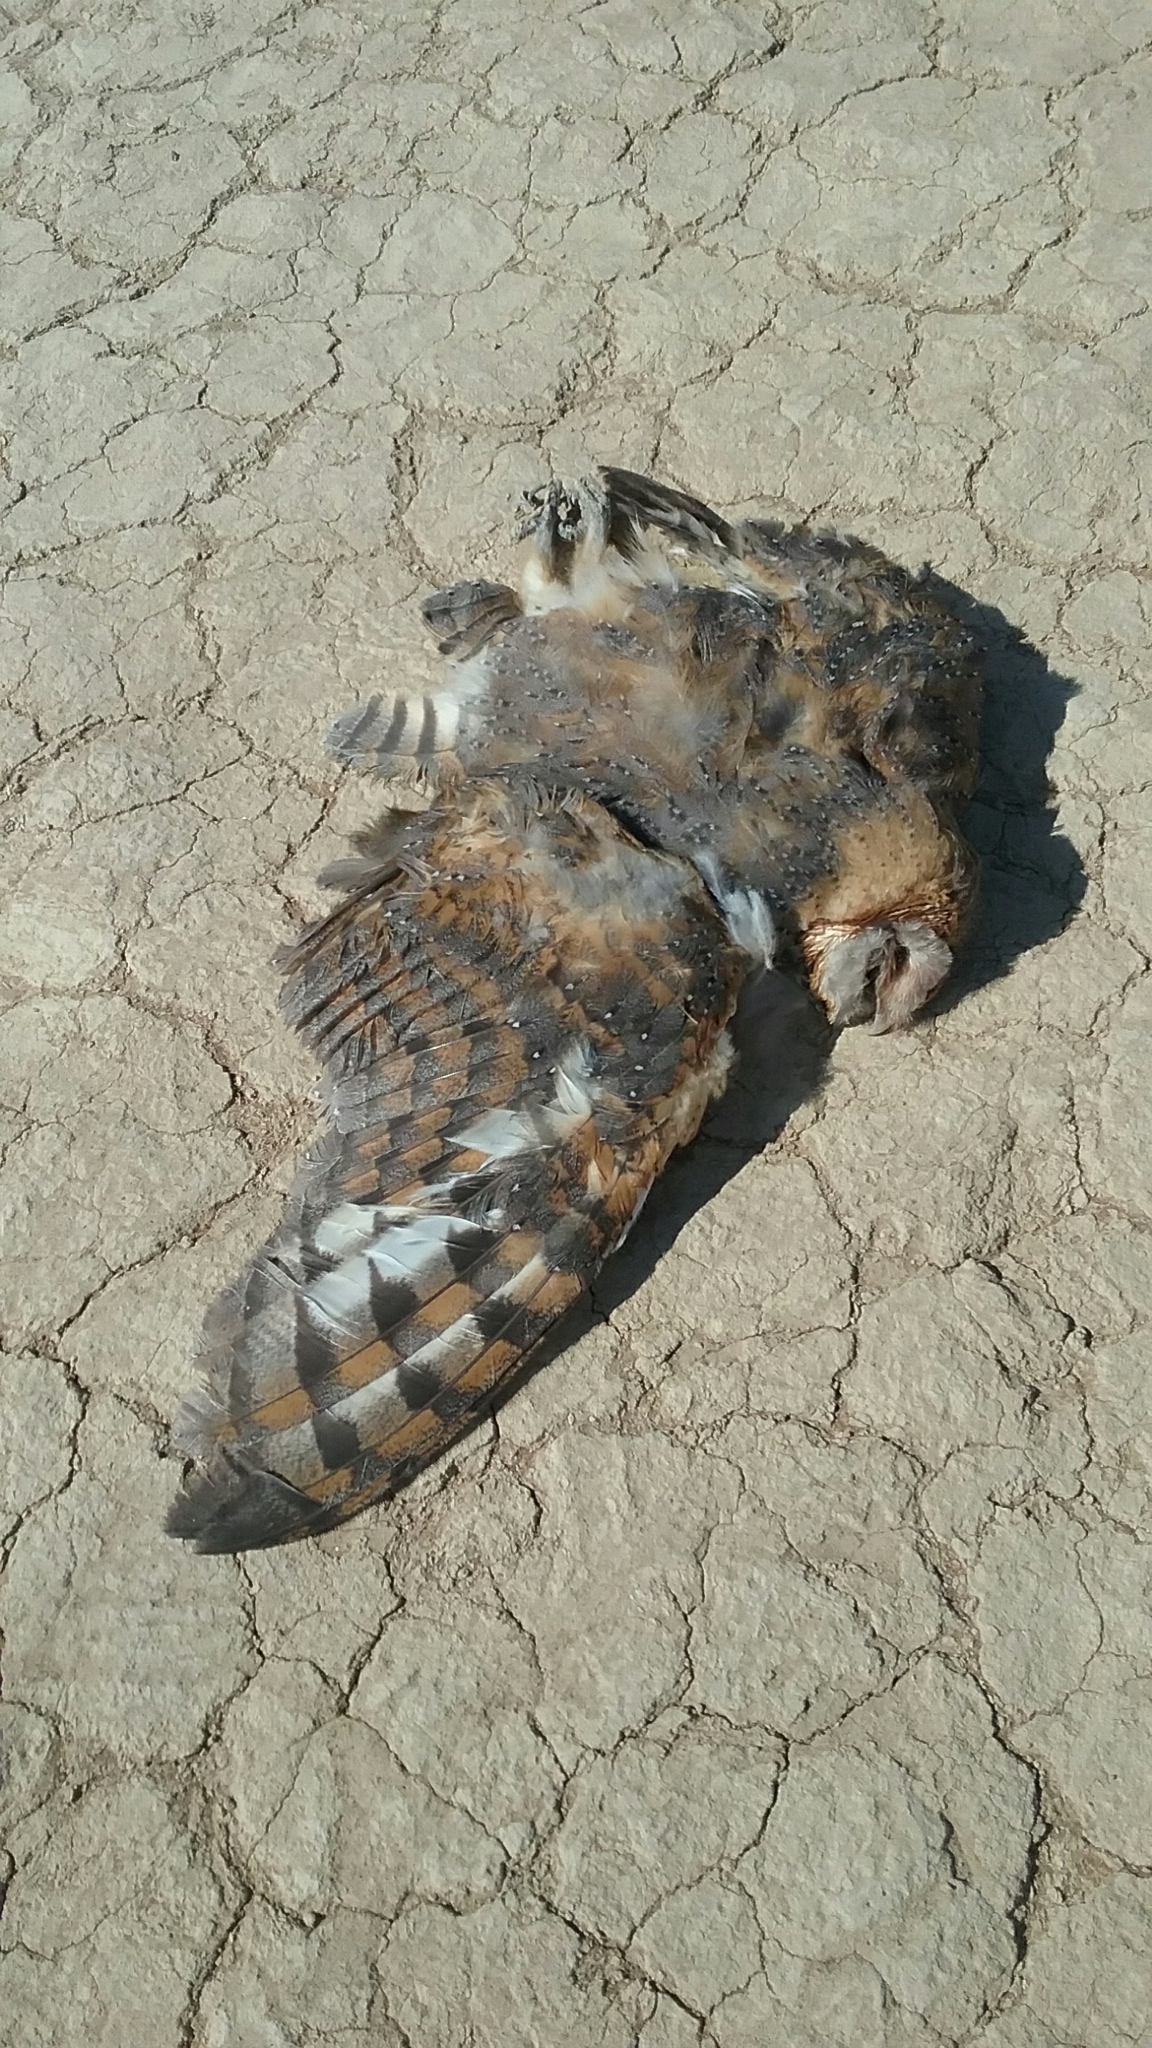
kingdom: Animalia
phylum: Chordata
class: Aves
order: Strigiformes
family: Tytonidae
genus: Tyto
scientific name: Tyto alba
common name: Barn owl
